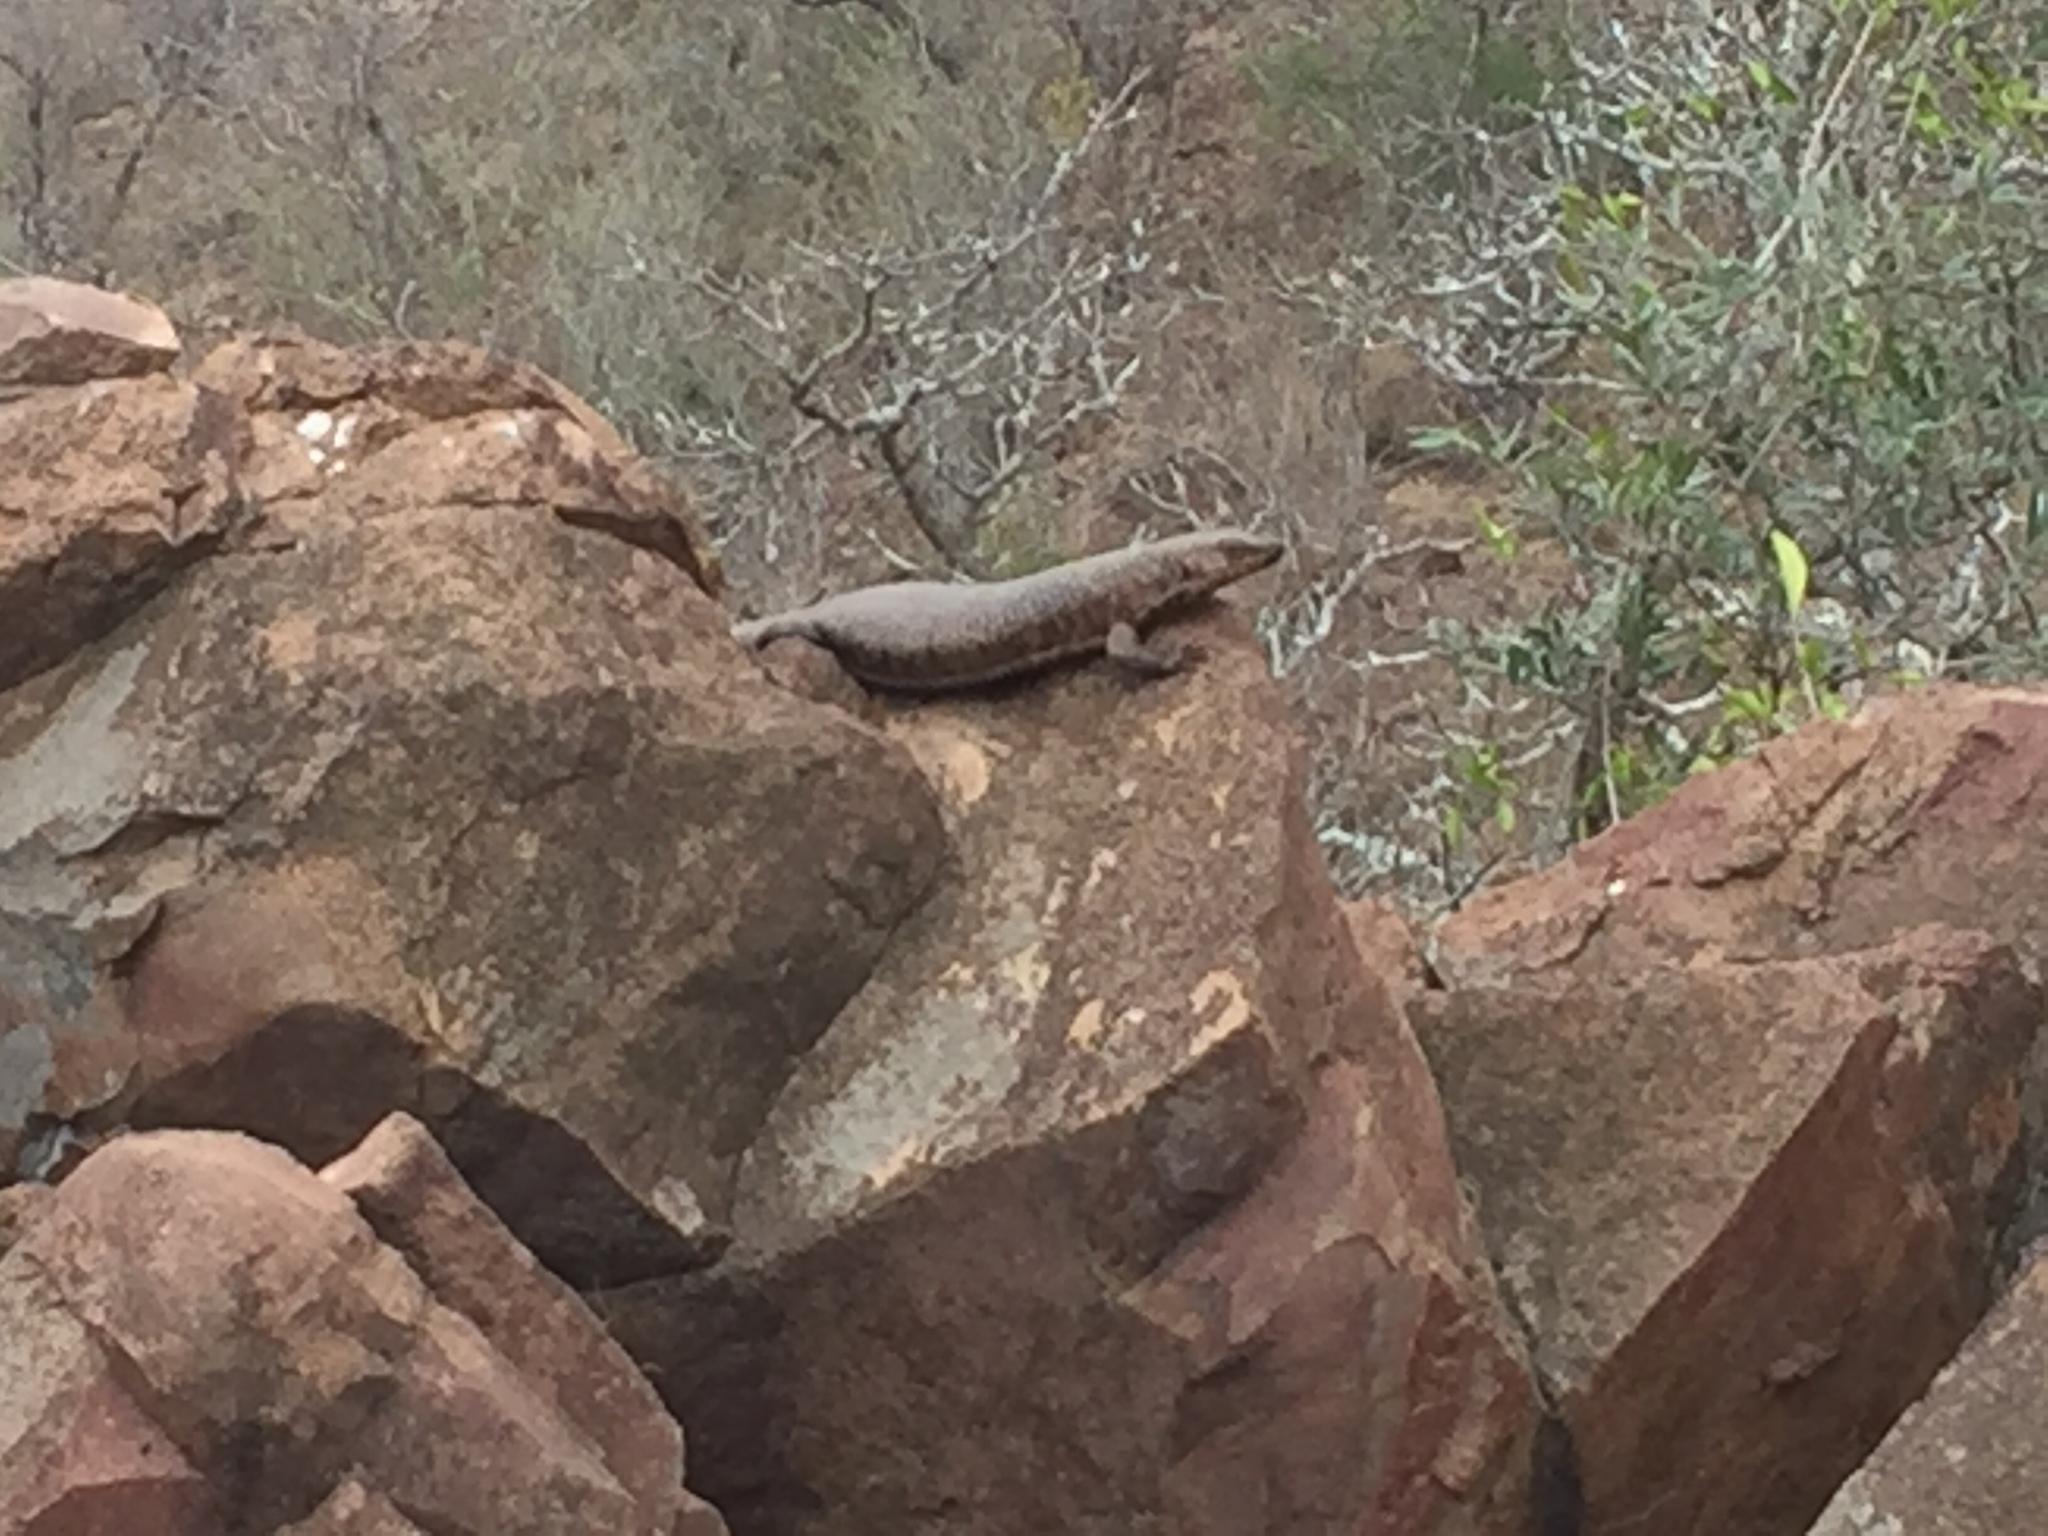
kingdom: Animalia
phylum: Chordata
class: Squamata
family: Gerrhosauridae
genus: Matobosaurus
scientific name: Matobosaurus validus
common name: Common giant plated lizard
